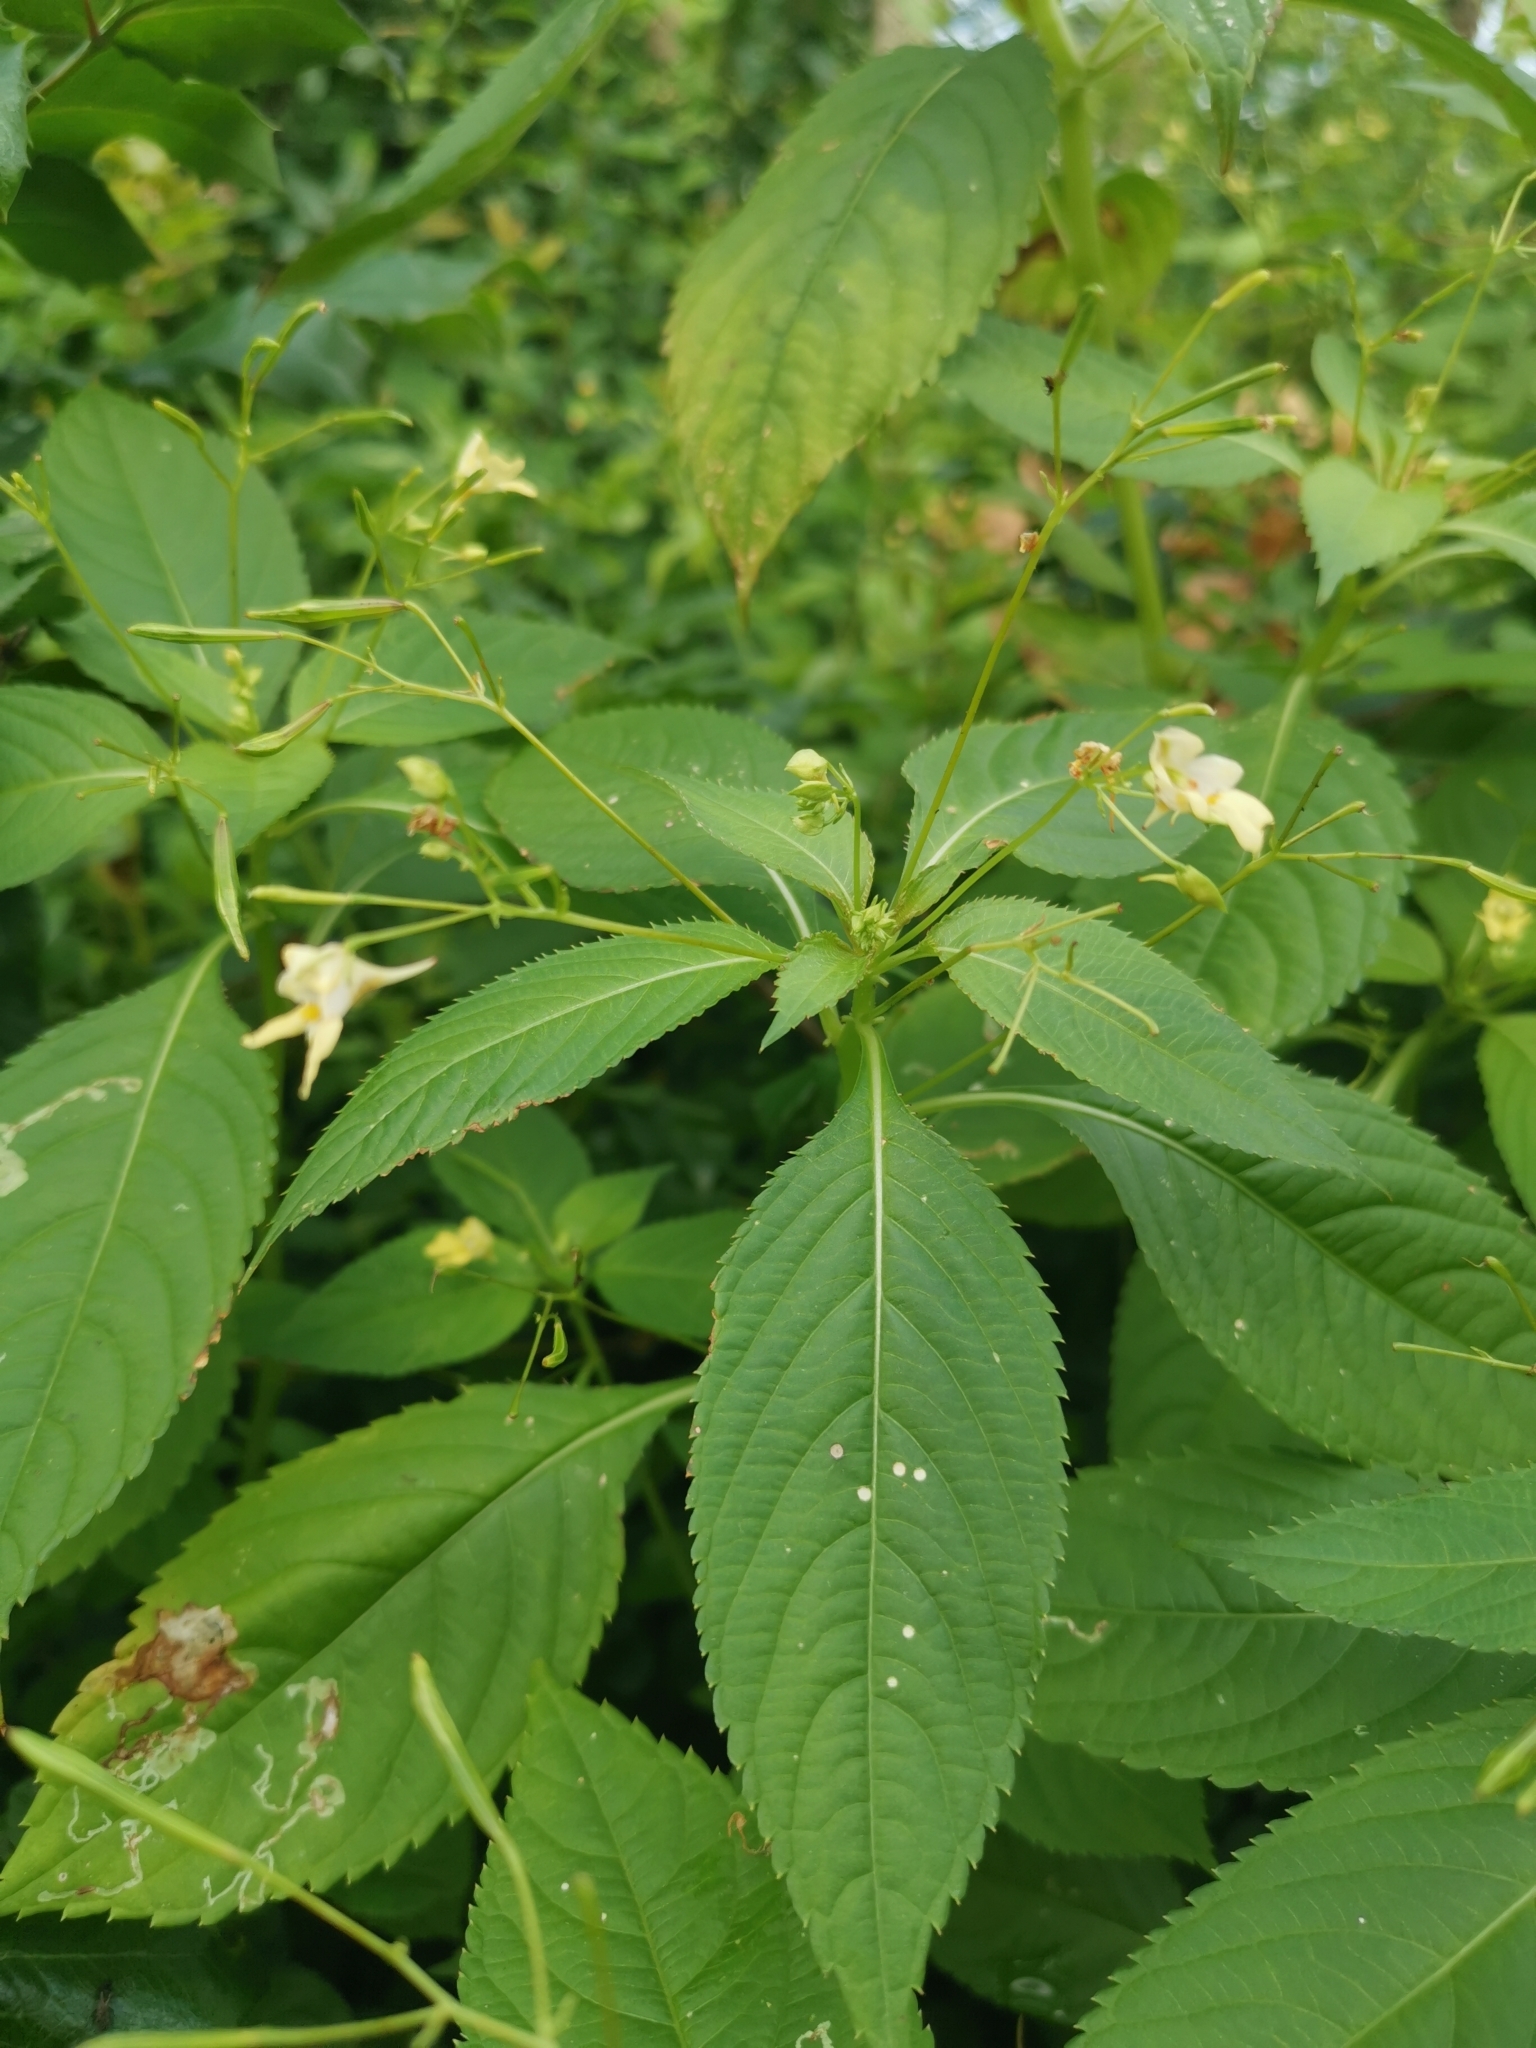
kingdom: Plantae
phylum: Tracheophyta
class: Magnoliopsida
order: Ericales
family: Balsaminaceae
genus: Impatiens
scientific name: Impatiens parviflora
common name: Small balsam
